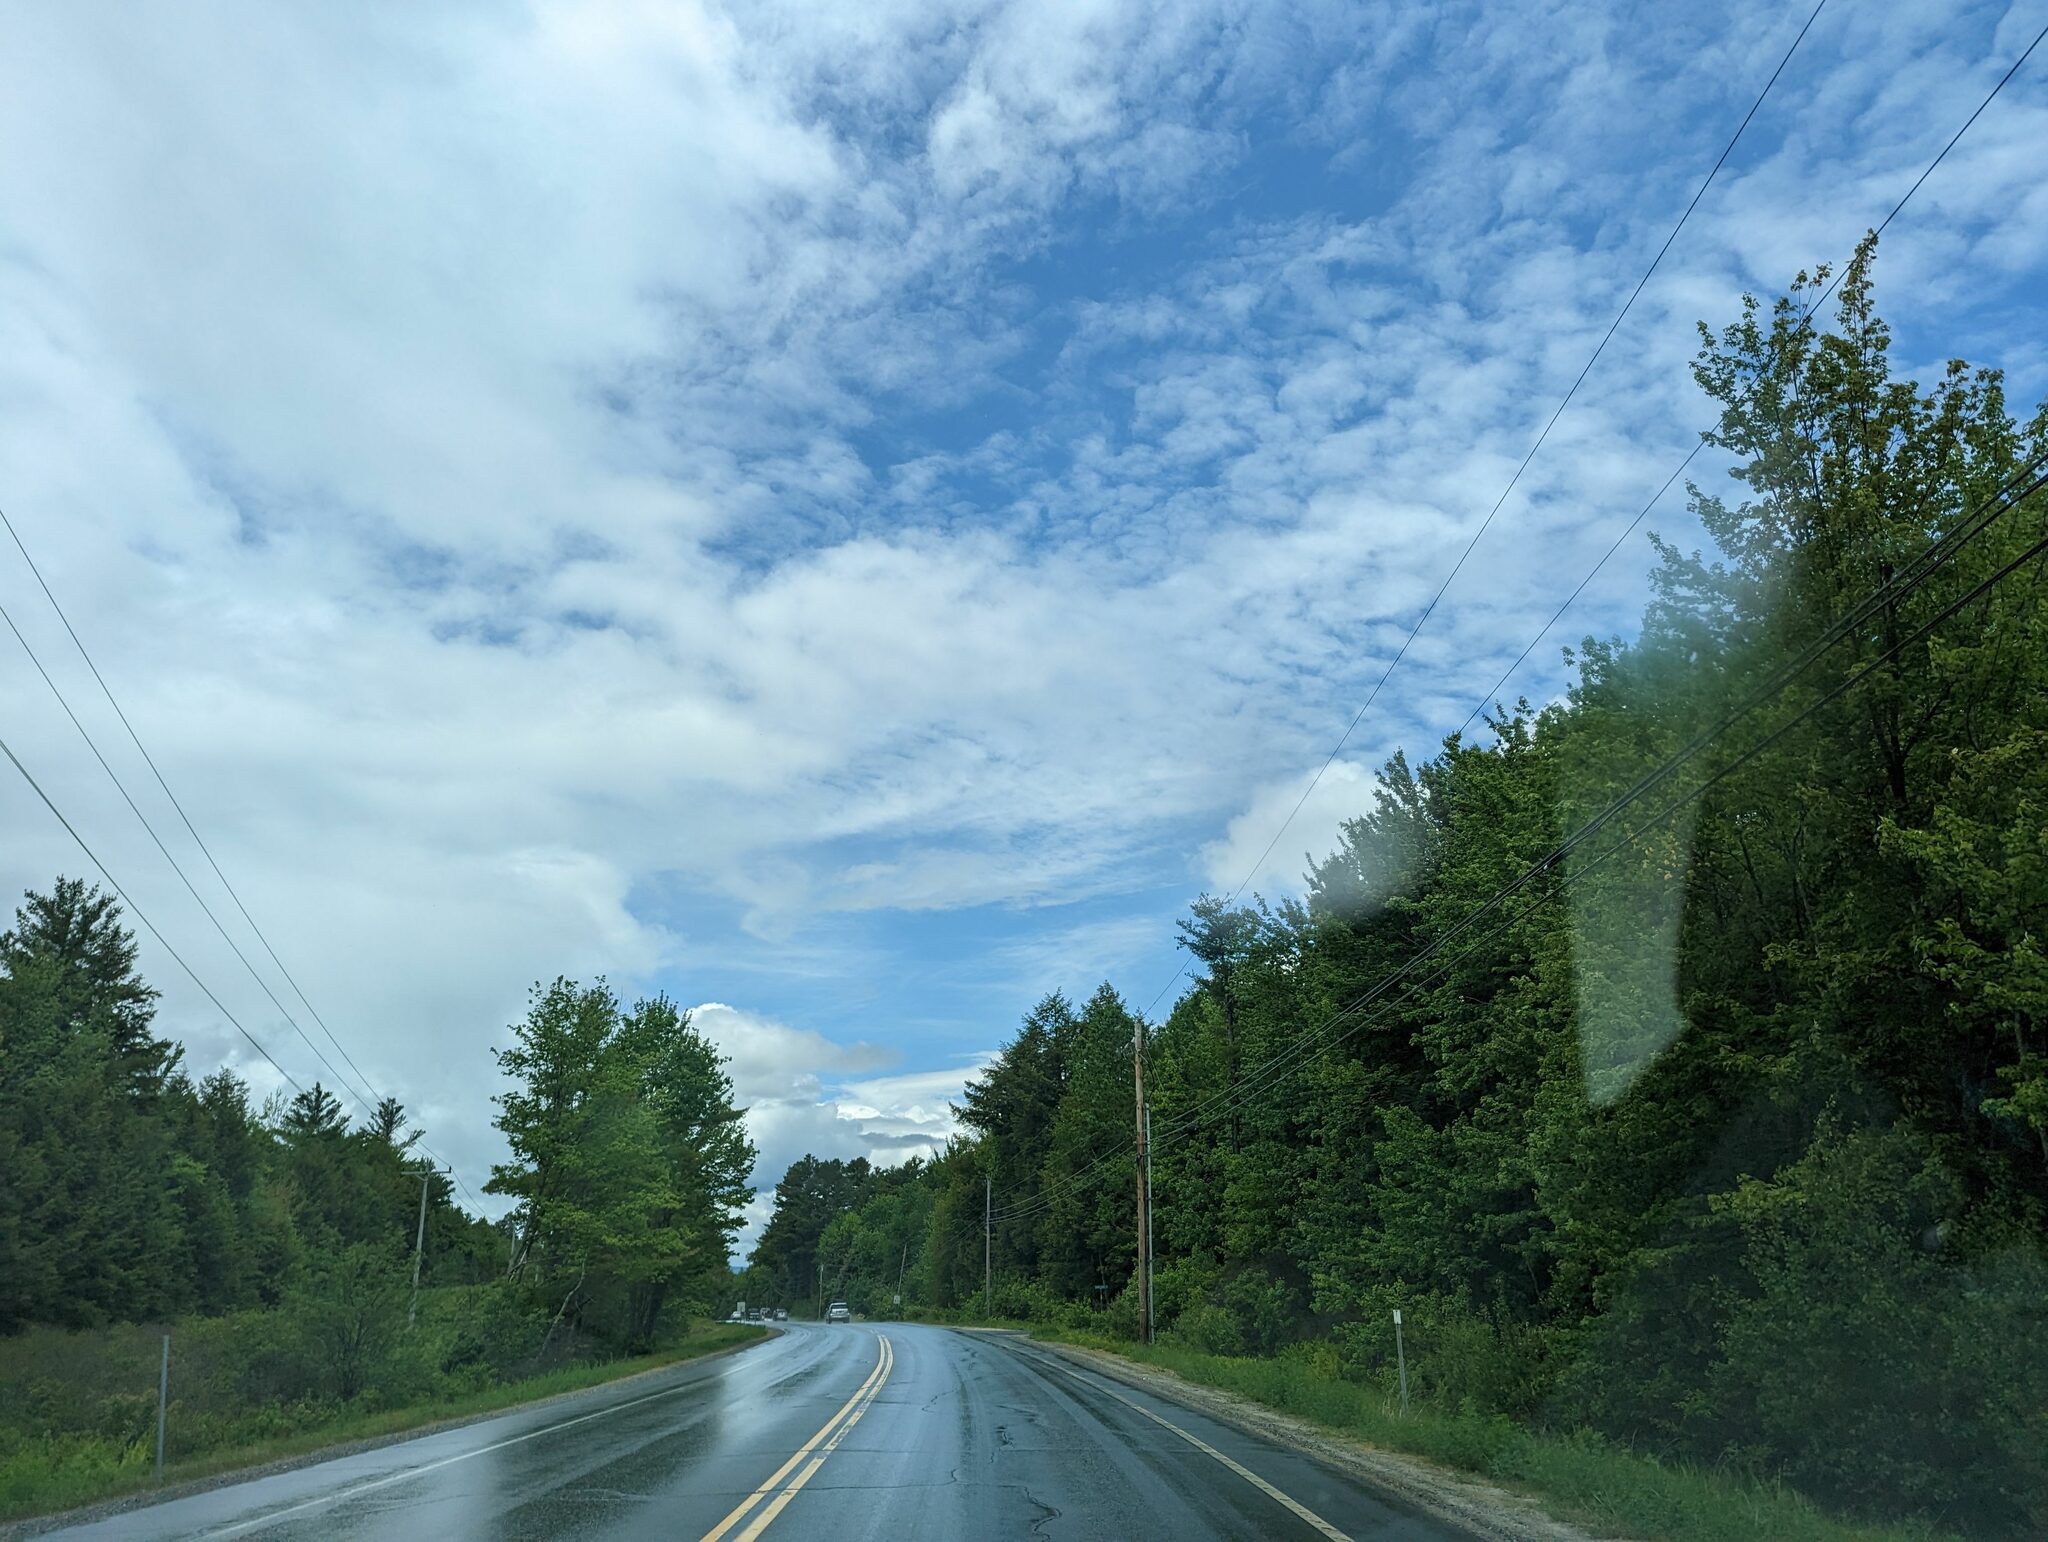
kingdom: Plantae
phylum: Tracheophyta
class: Pinopsida
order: Pinales
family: Pinaceae
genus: Pinus
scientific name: Pinus strobus
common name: Weymouth pine
